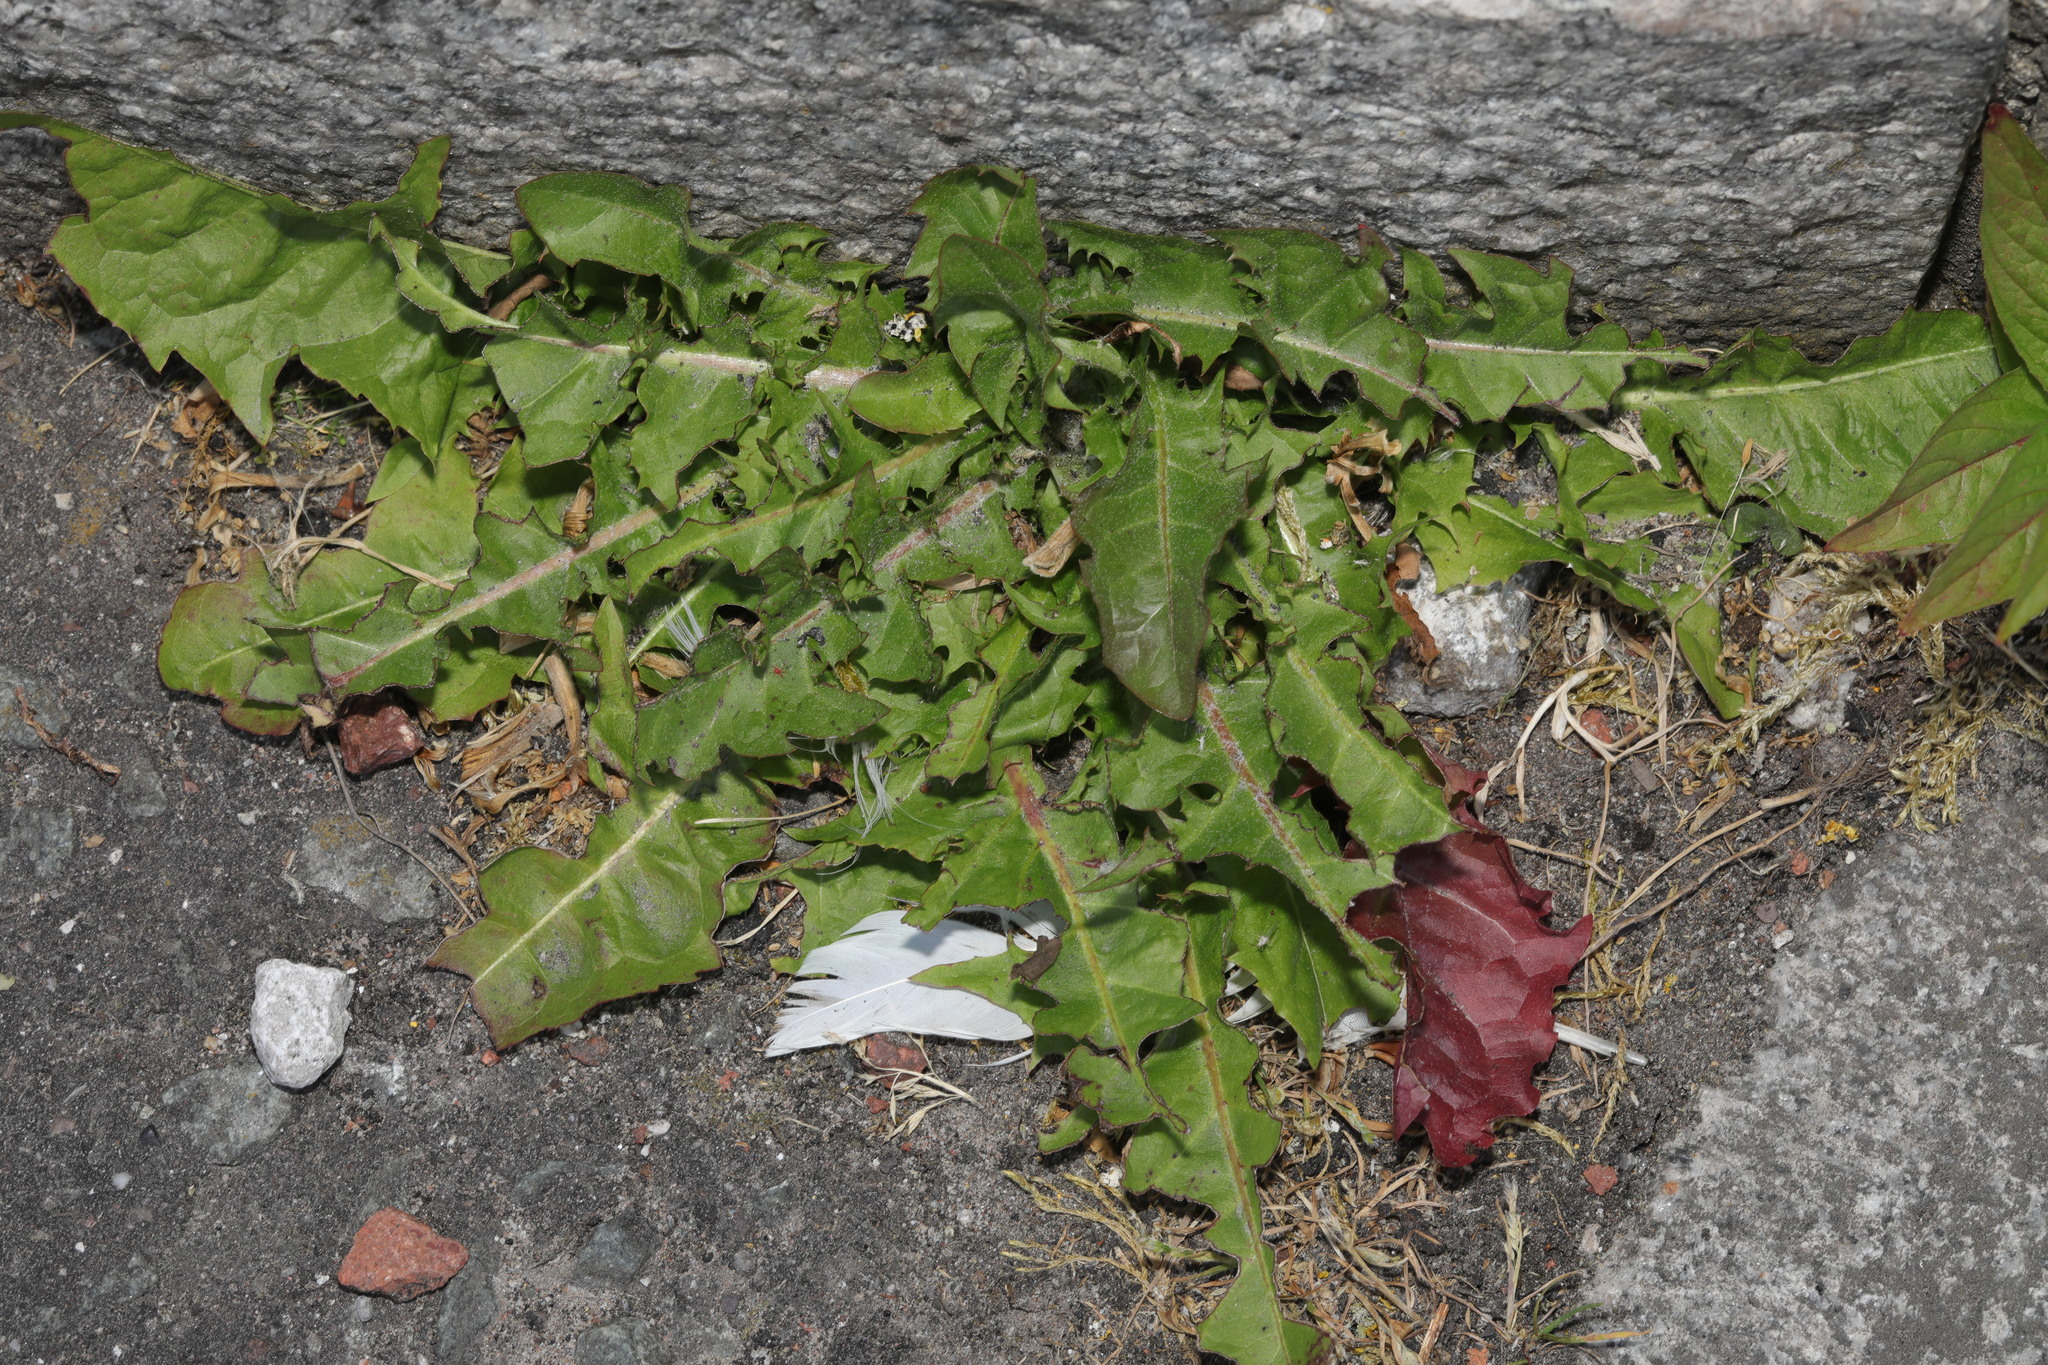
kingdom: Plantae
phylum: Tracheophyta
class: Magnoliopsida
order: Asterales
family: Asteraceae
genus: Taraxacum
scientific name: Taraxacum officinale
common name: Common dandelion
